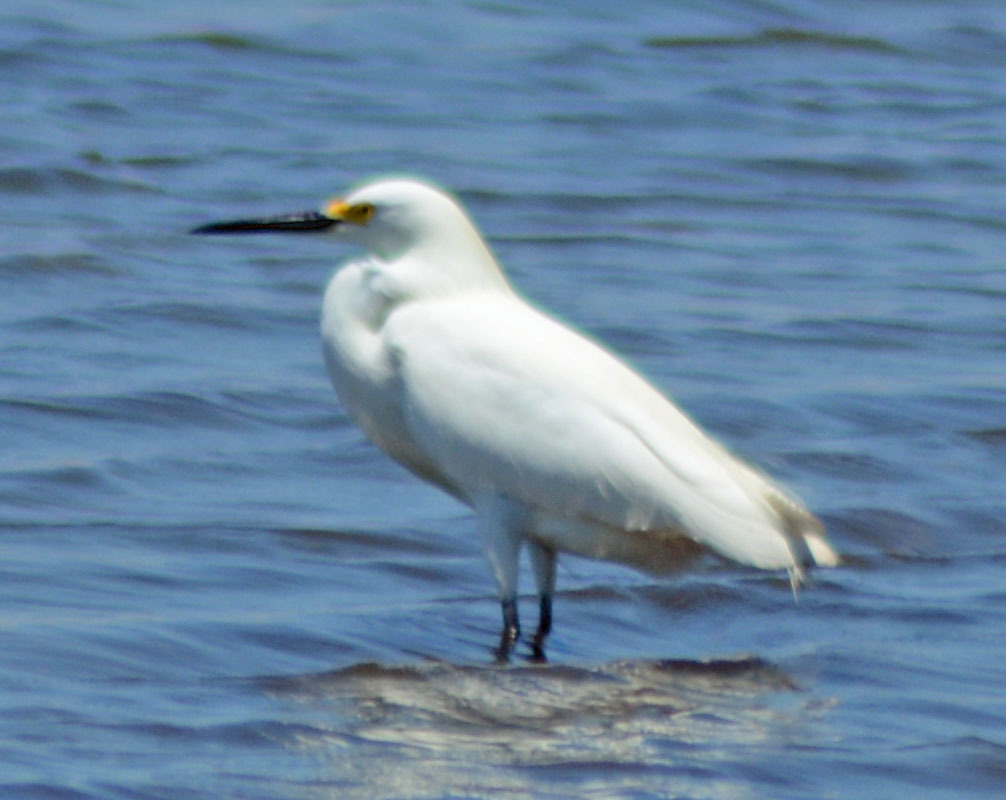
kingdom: Animalia
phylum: Chordata
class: Aves
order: Pelecaniformes
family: Ardeidae
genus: Egretta
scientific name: Egretta thula
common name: Snowy egret
